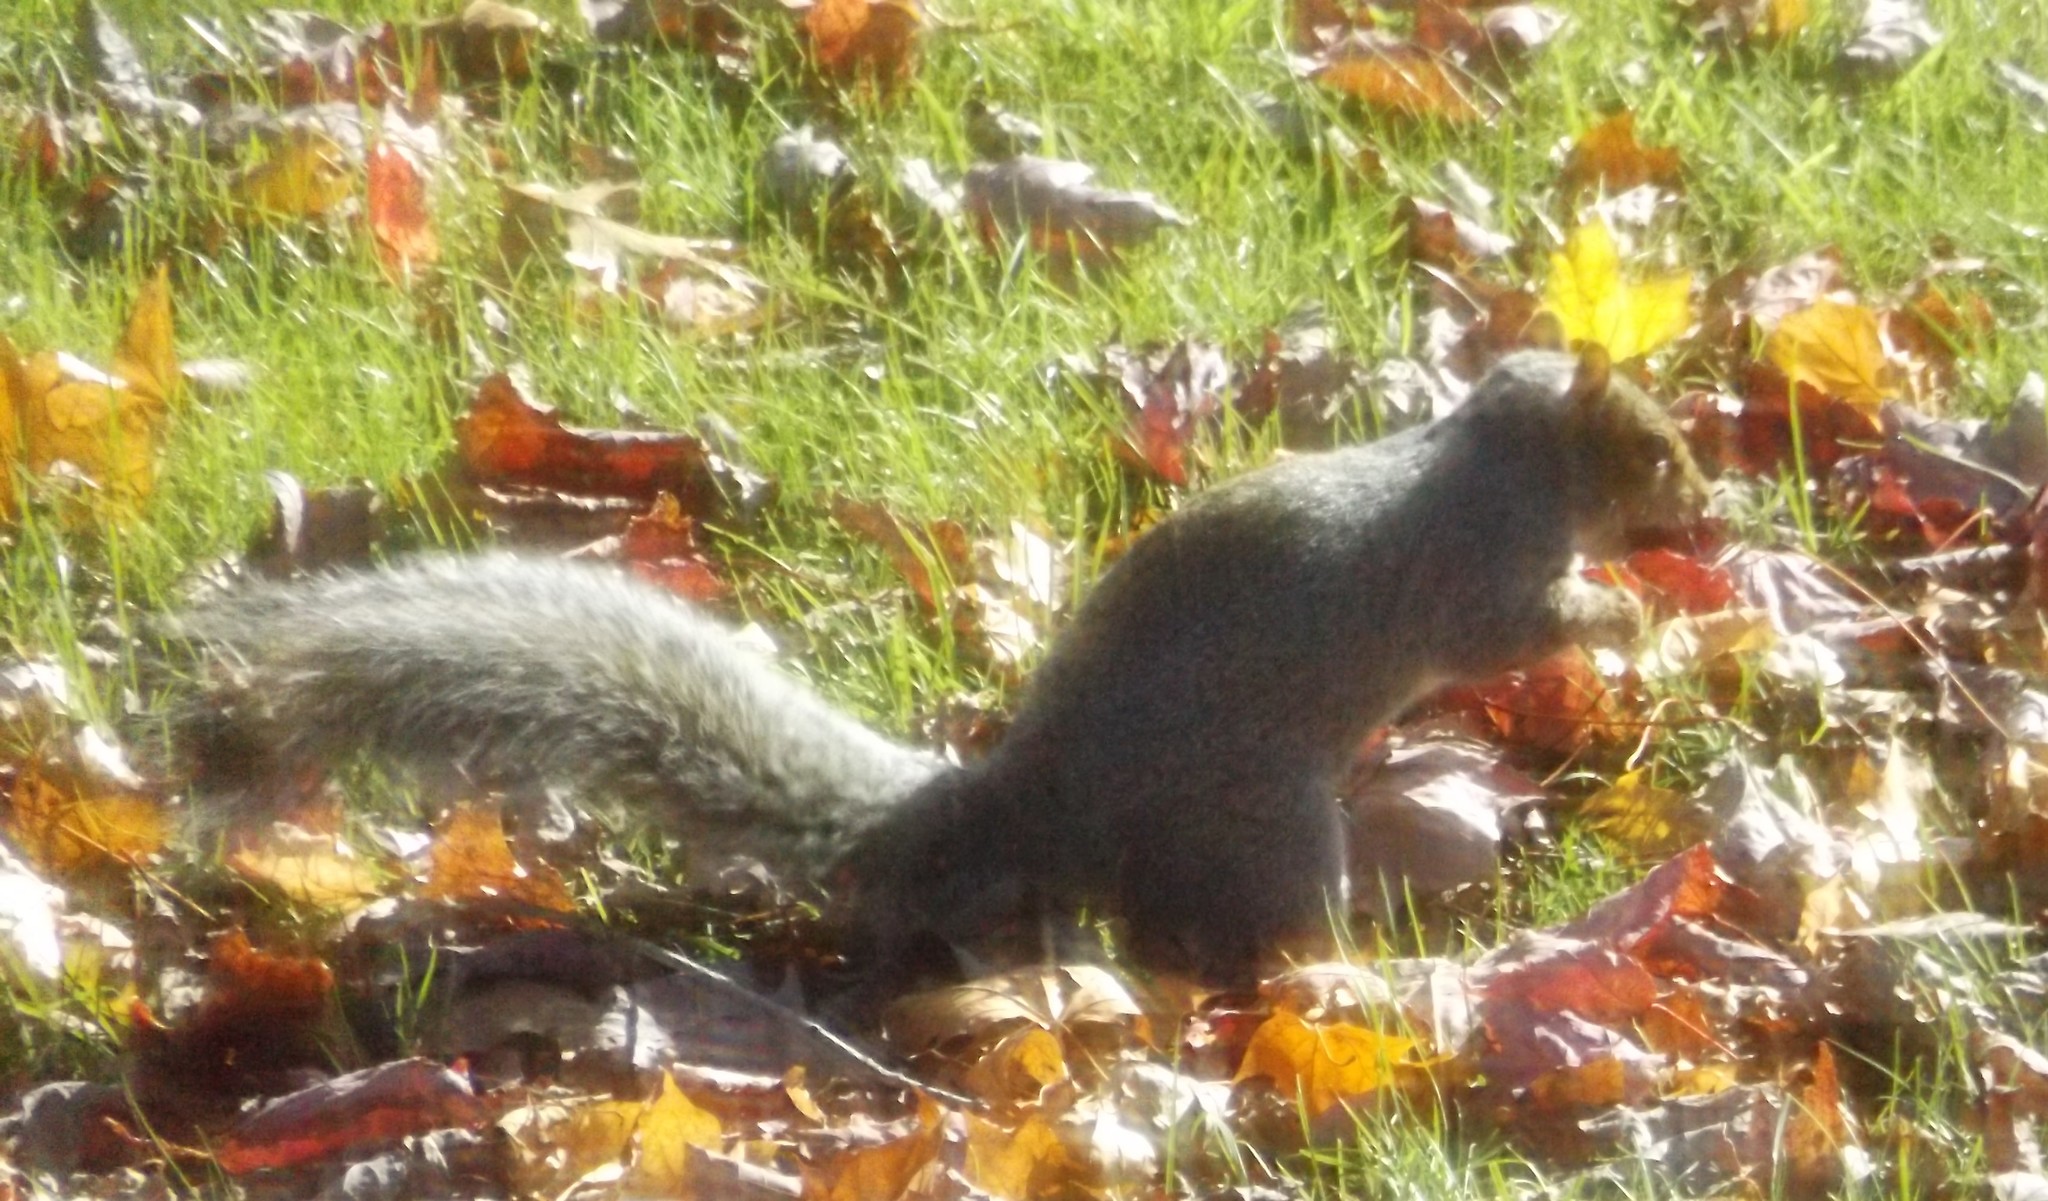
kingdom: Animalia
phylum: Chordata
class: Mammalia
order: Rodentia
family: Sciuridae
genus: Sciurus
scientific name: Sciurus carolinensis
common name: Eastern gray squirrel
